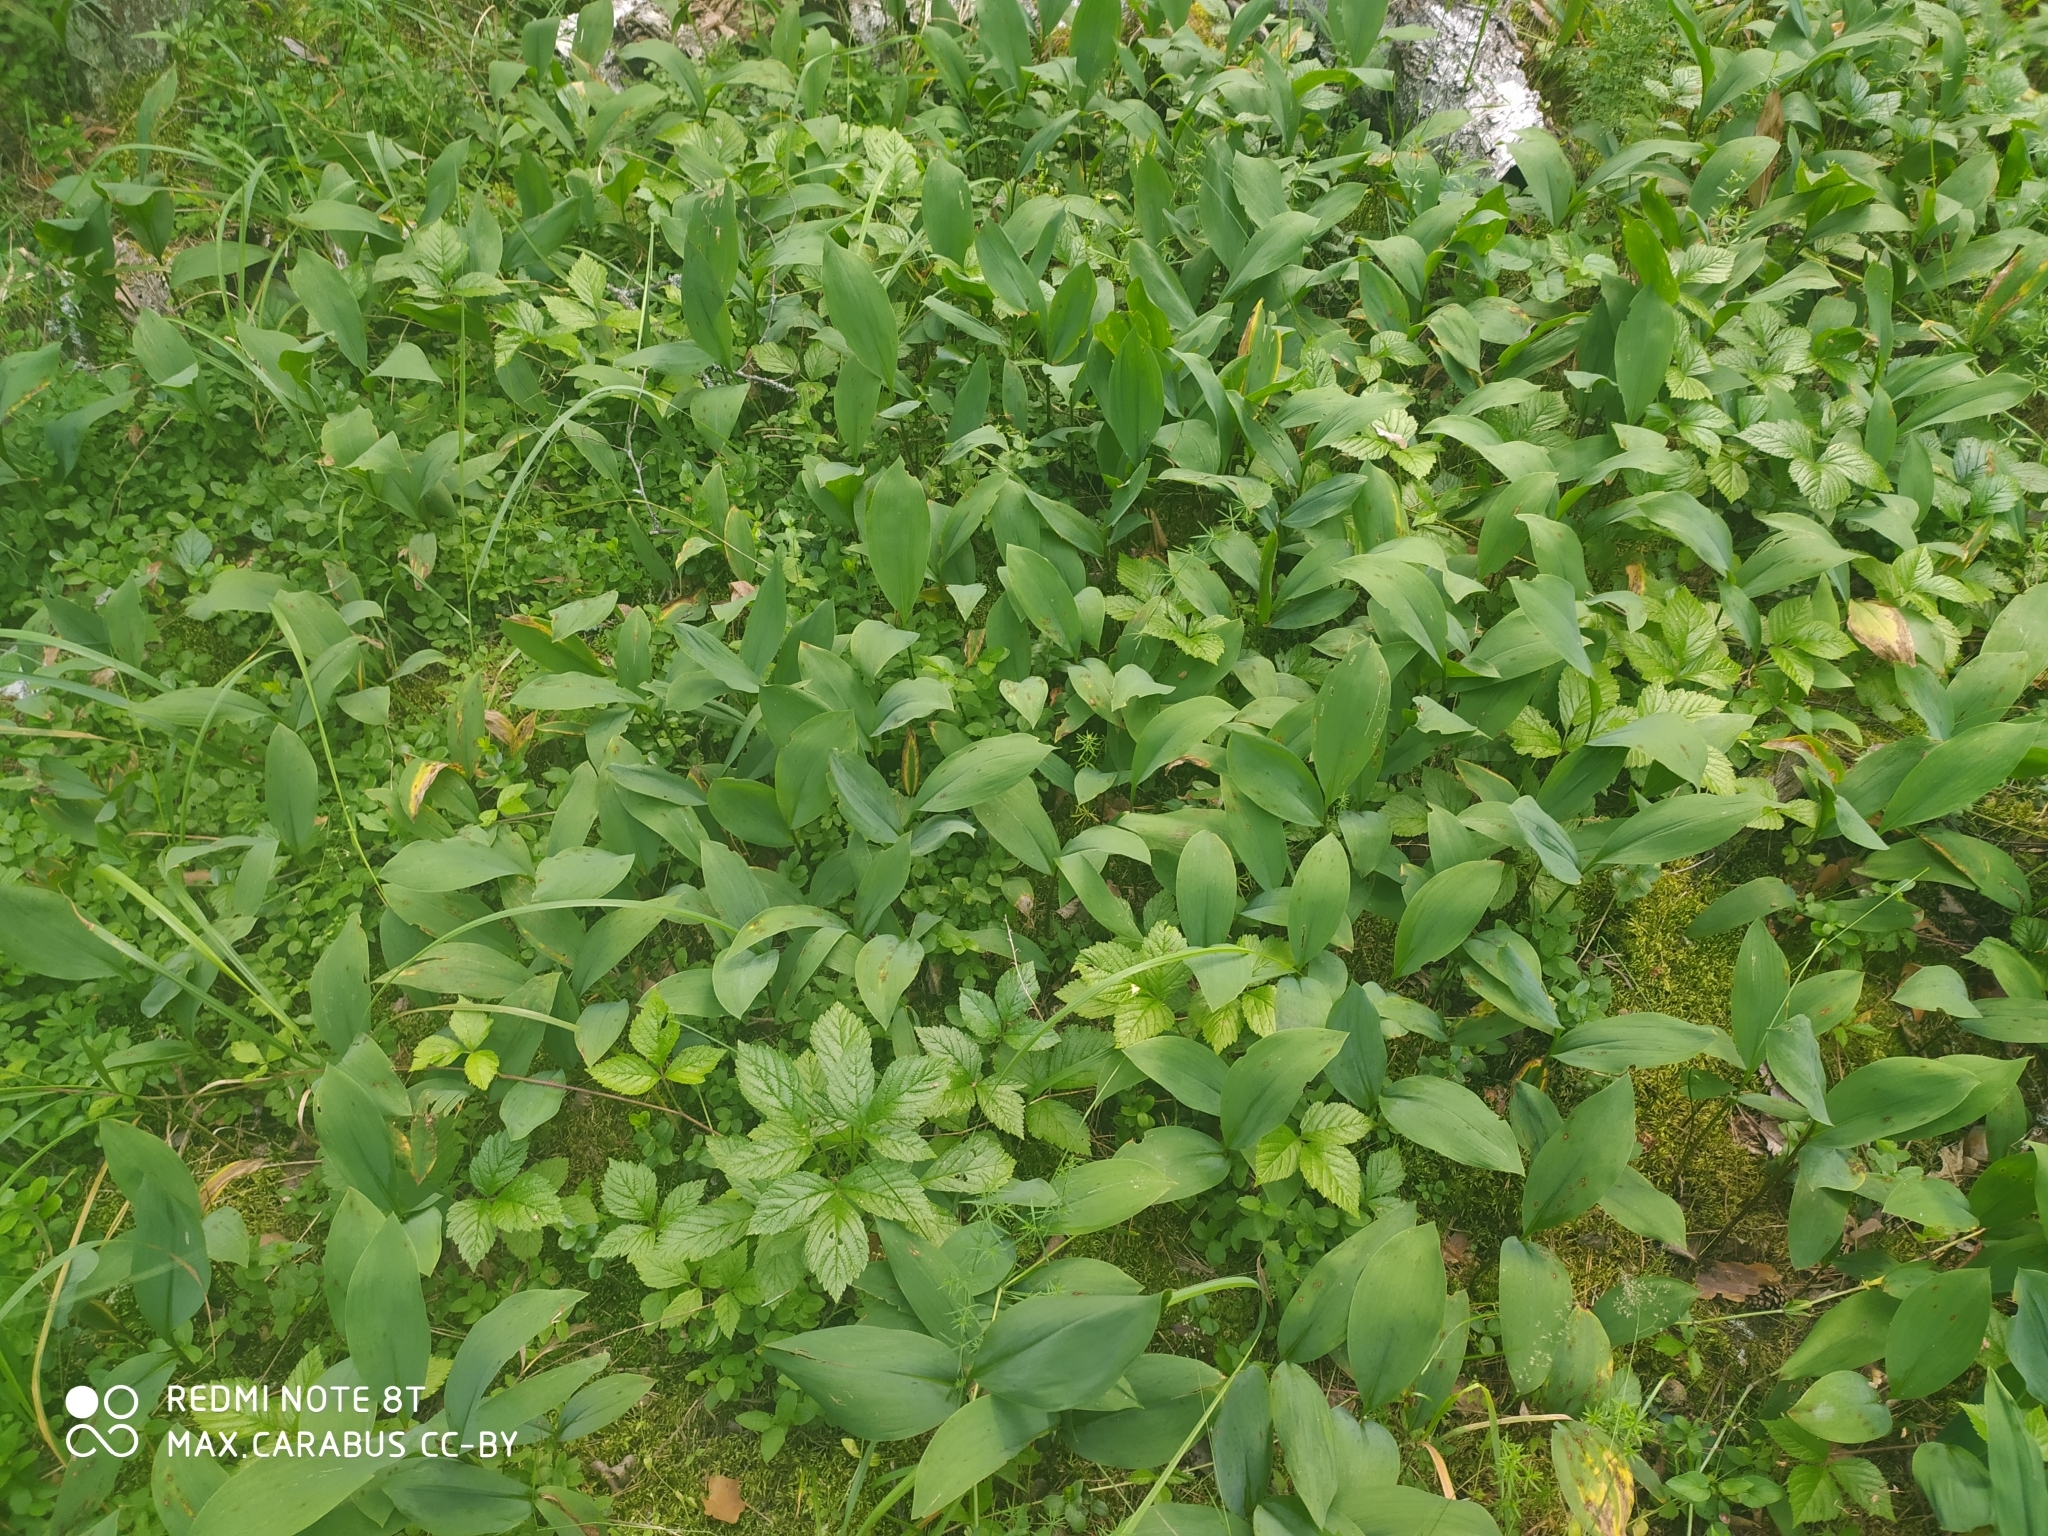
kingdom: Plantae
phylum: Tracheophyta
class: Liliopsida
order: Asparagales
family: Asparagaceae
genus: Convallaria
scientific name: Convallaria majalis
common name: Lily-of-the-valley
